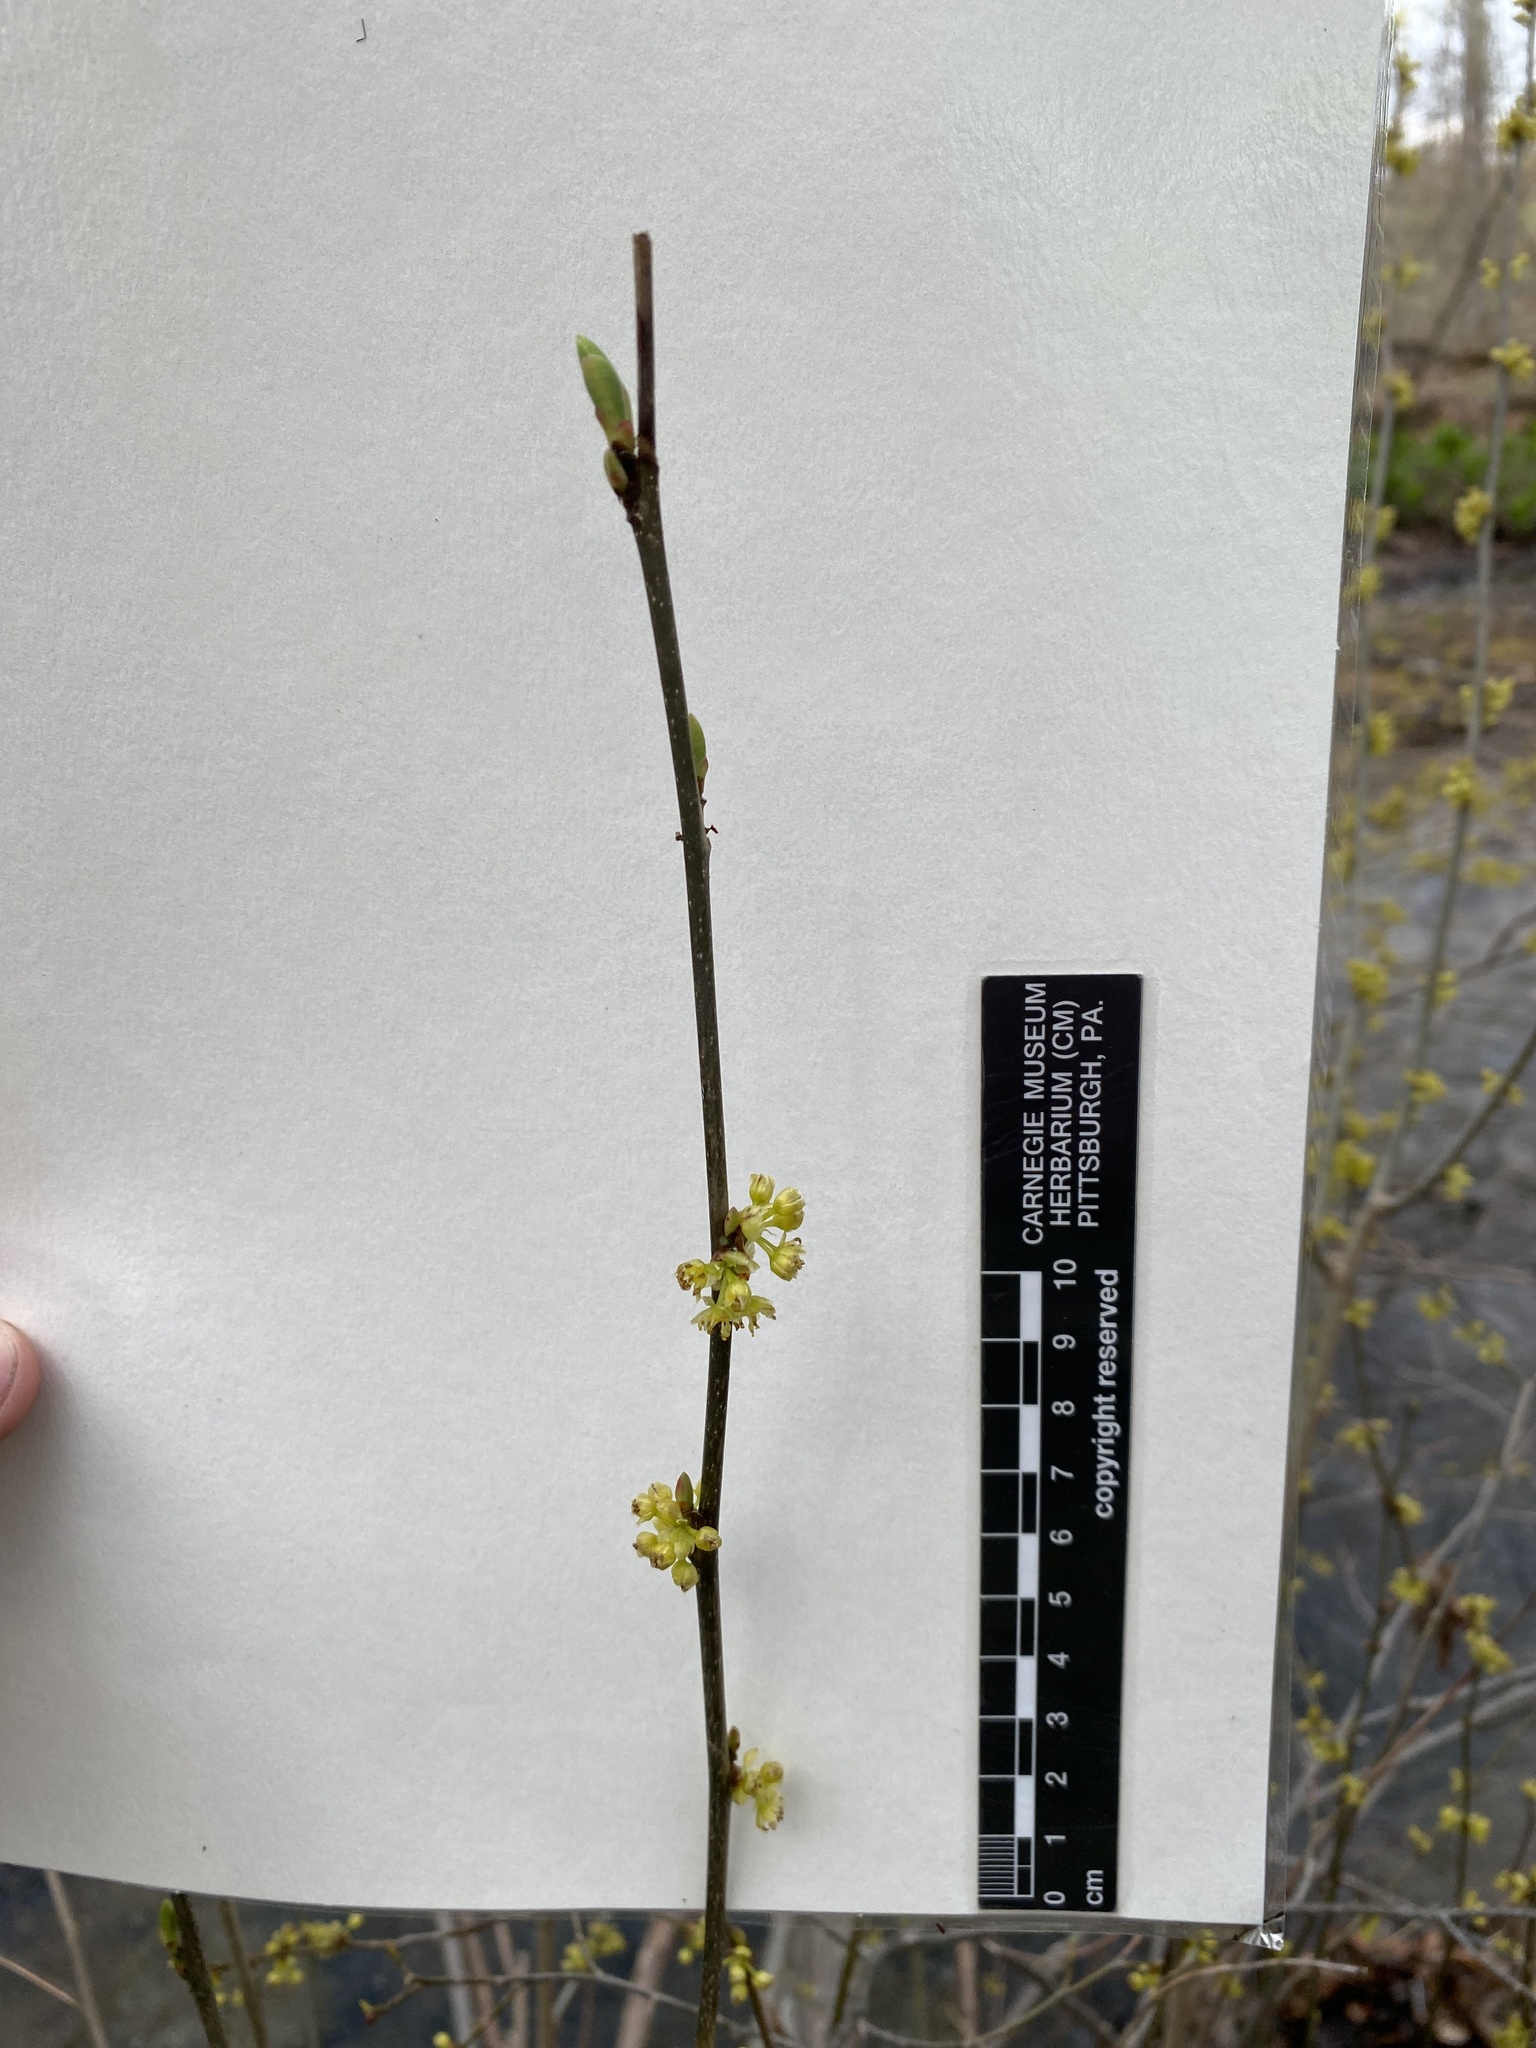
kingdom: Plantae
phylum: Tracheophyta
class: Magnoliopsida
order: Laurales
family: Lauraceae
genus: Lindera
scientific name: Lindera benzoin
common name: Spicebush
